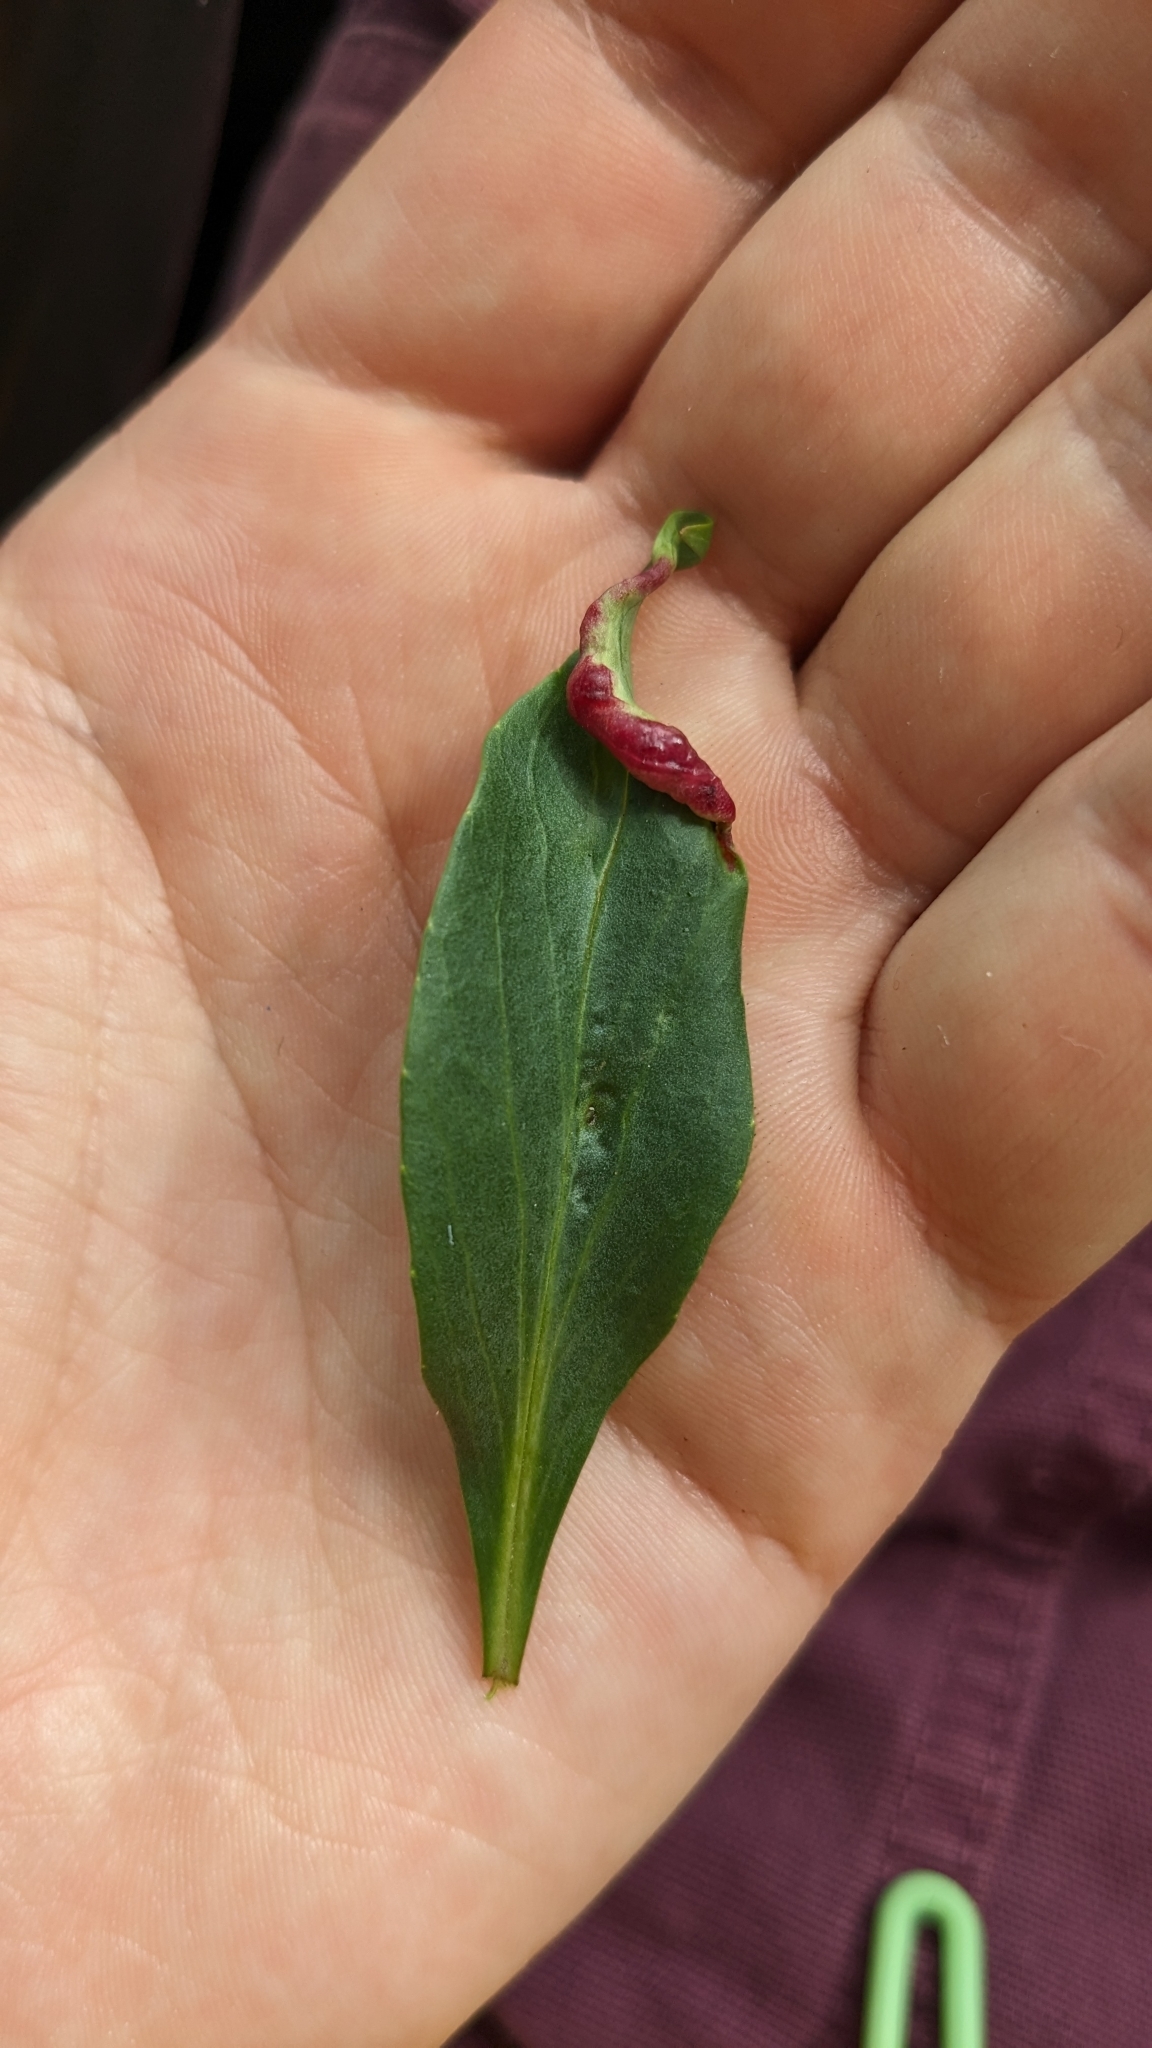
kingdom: Animalia
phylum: Arthropoda
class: Insecta
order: Hemiptera
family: Triozidae
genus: Trioza
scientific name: Trioza centranthi
